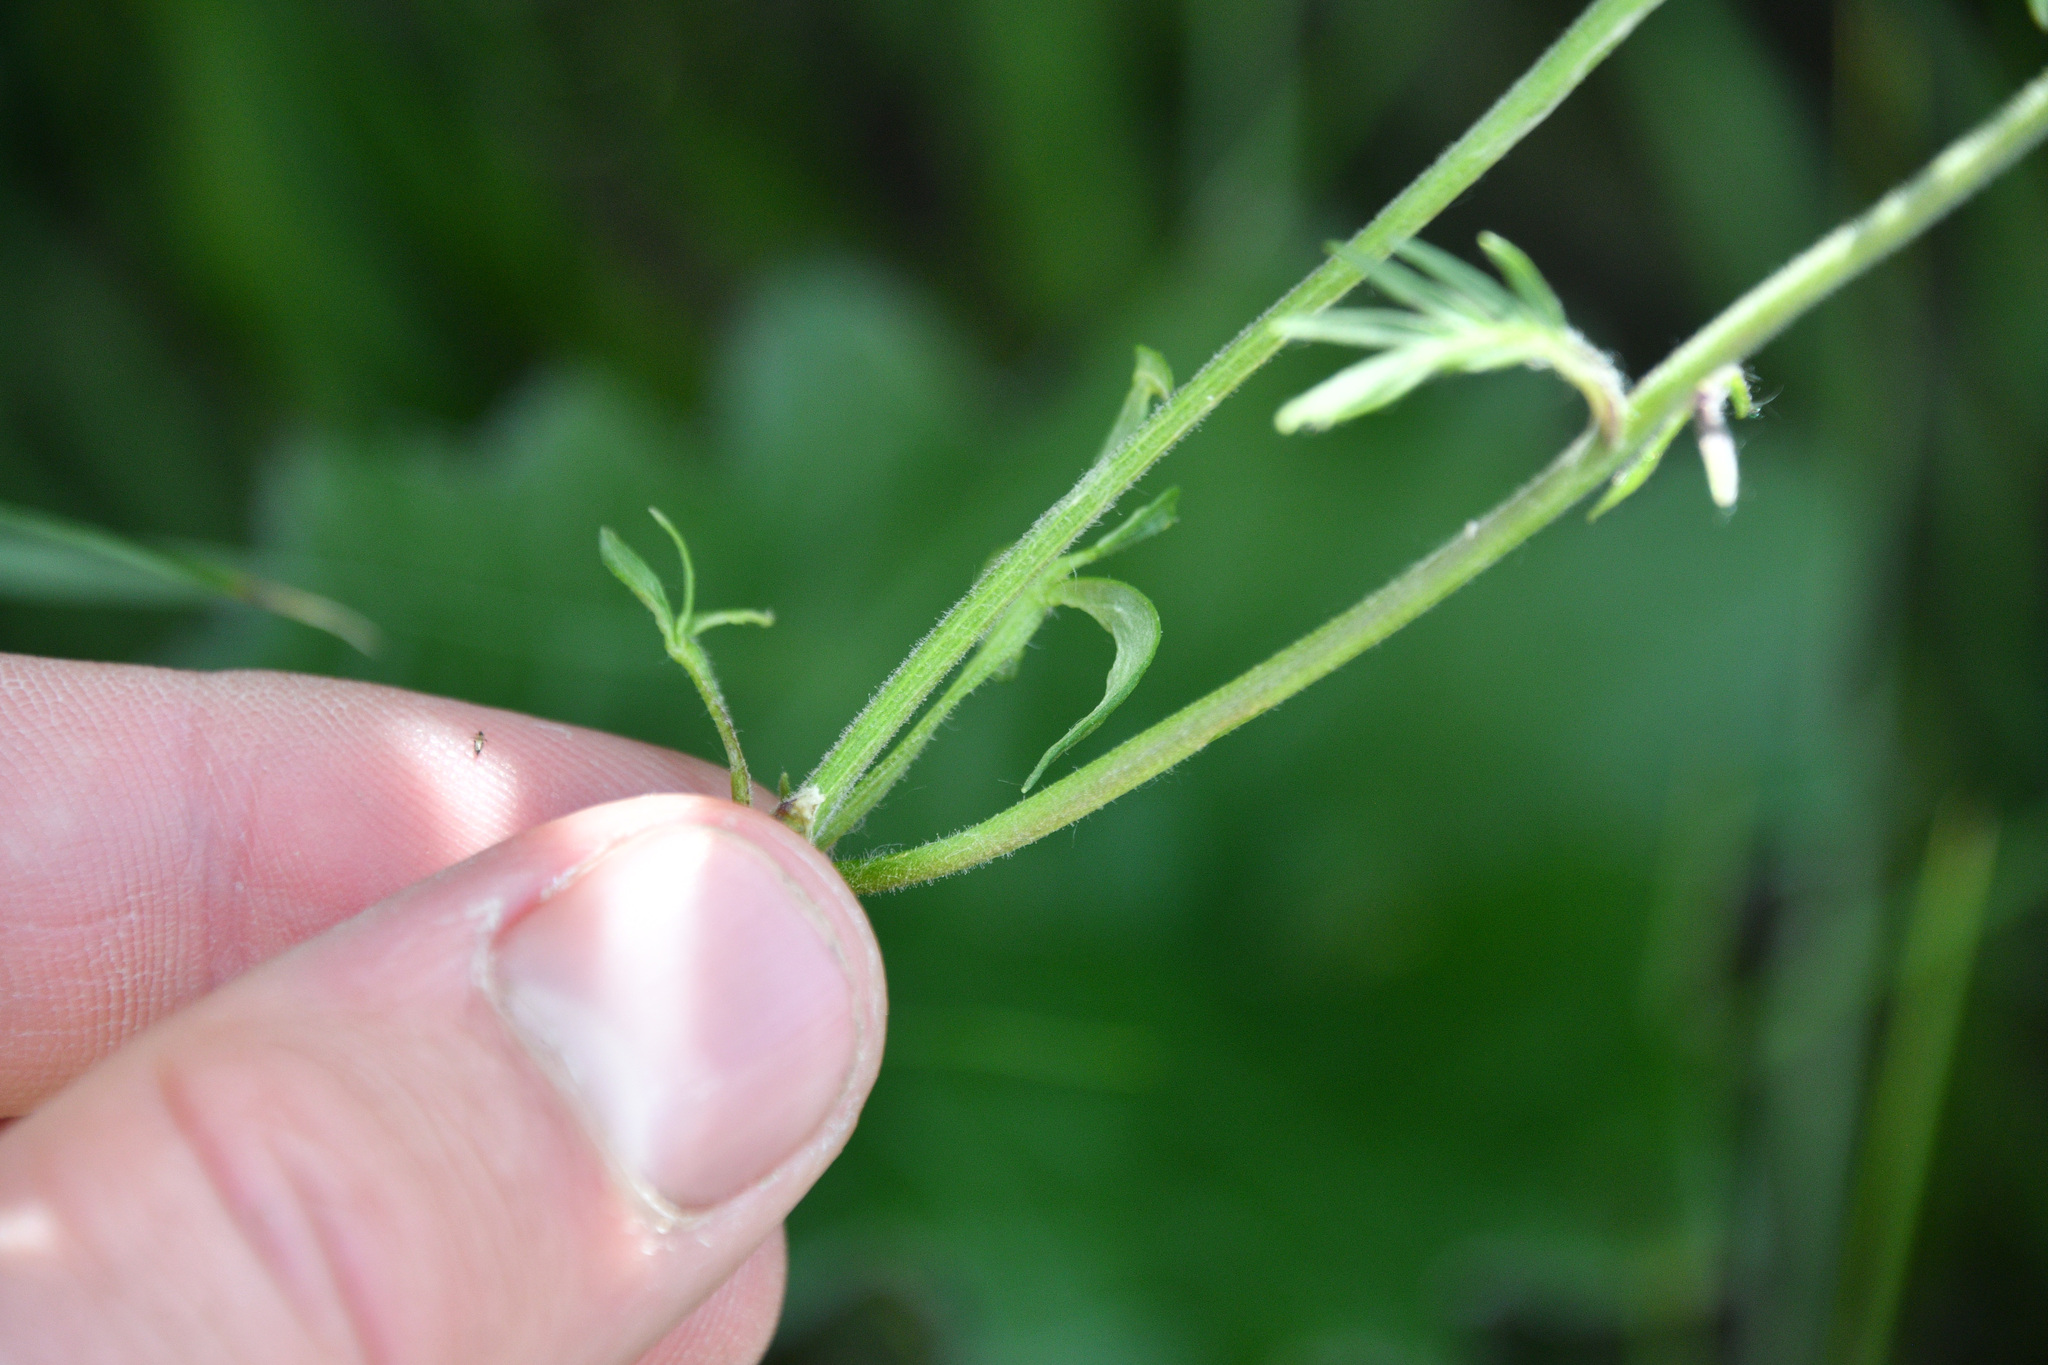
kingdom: Plantae
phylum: Tracheophyta
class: Magnoliopsida
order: Ericales
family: Polemoniaceae
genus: Polemonium
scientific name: Polemonium acutiflorum
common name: Tall jacob's-ladder
